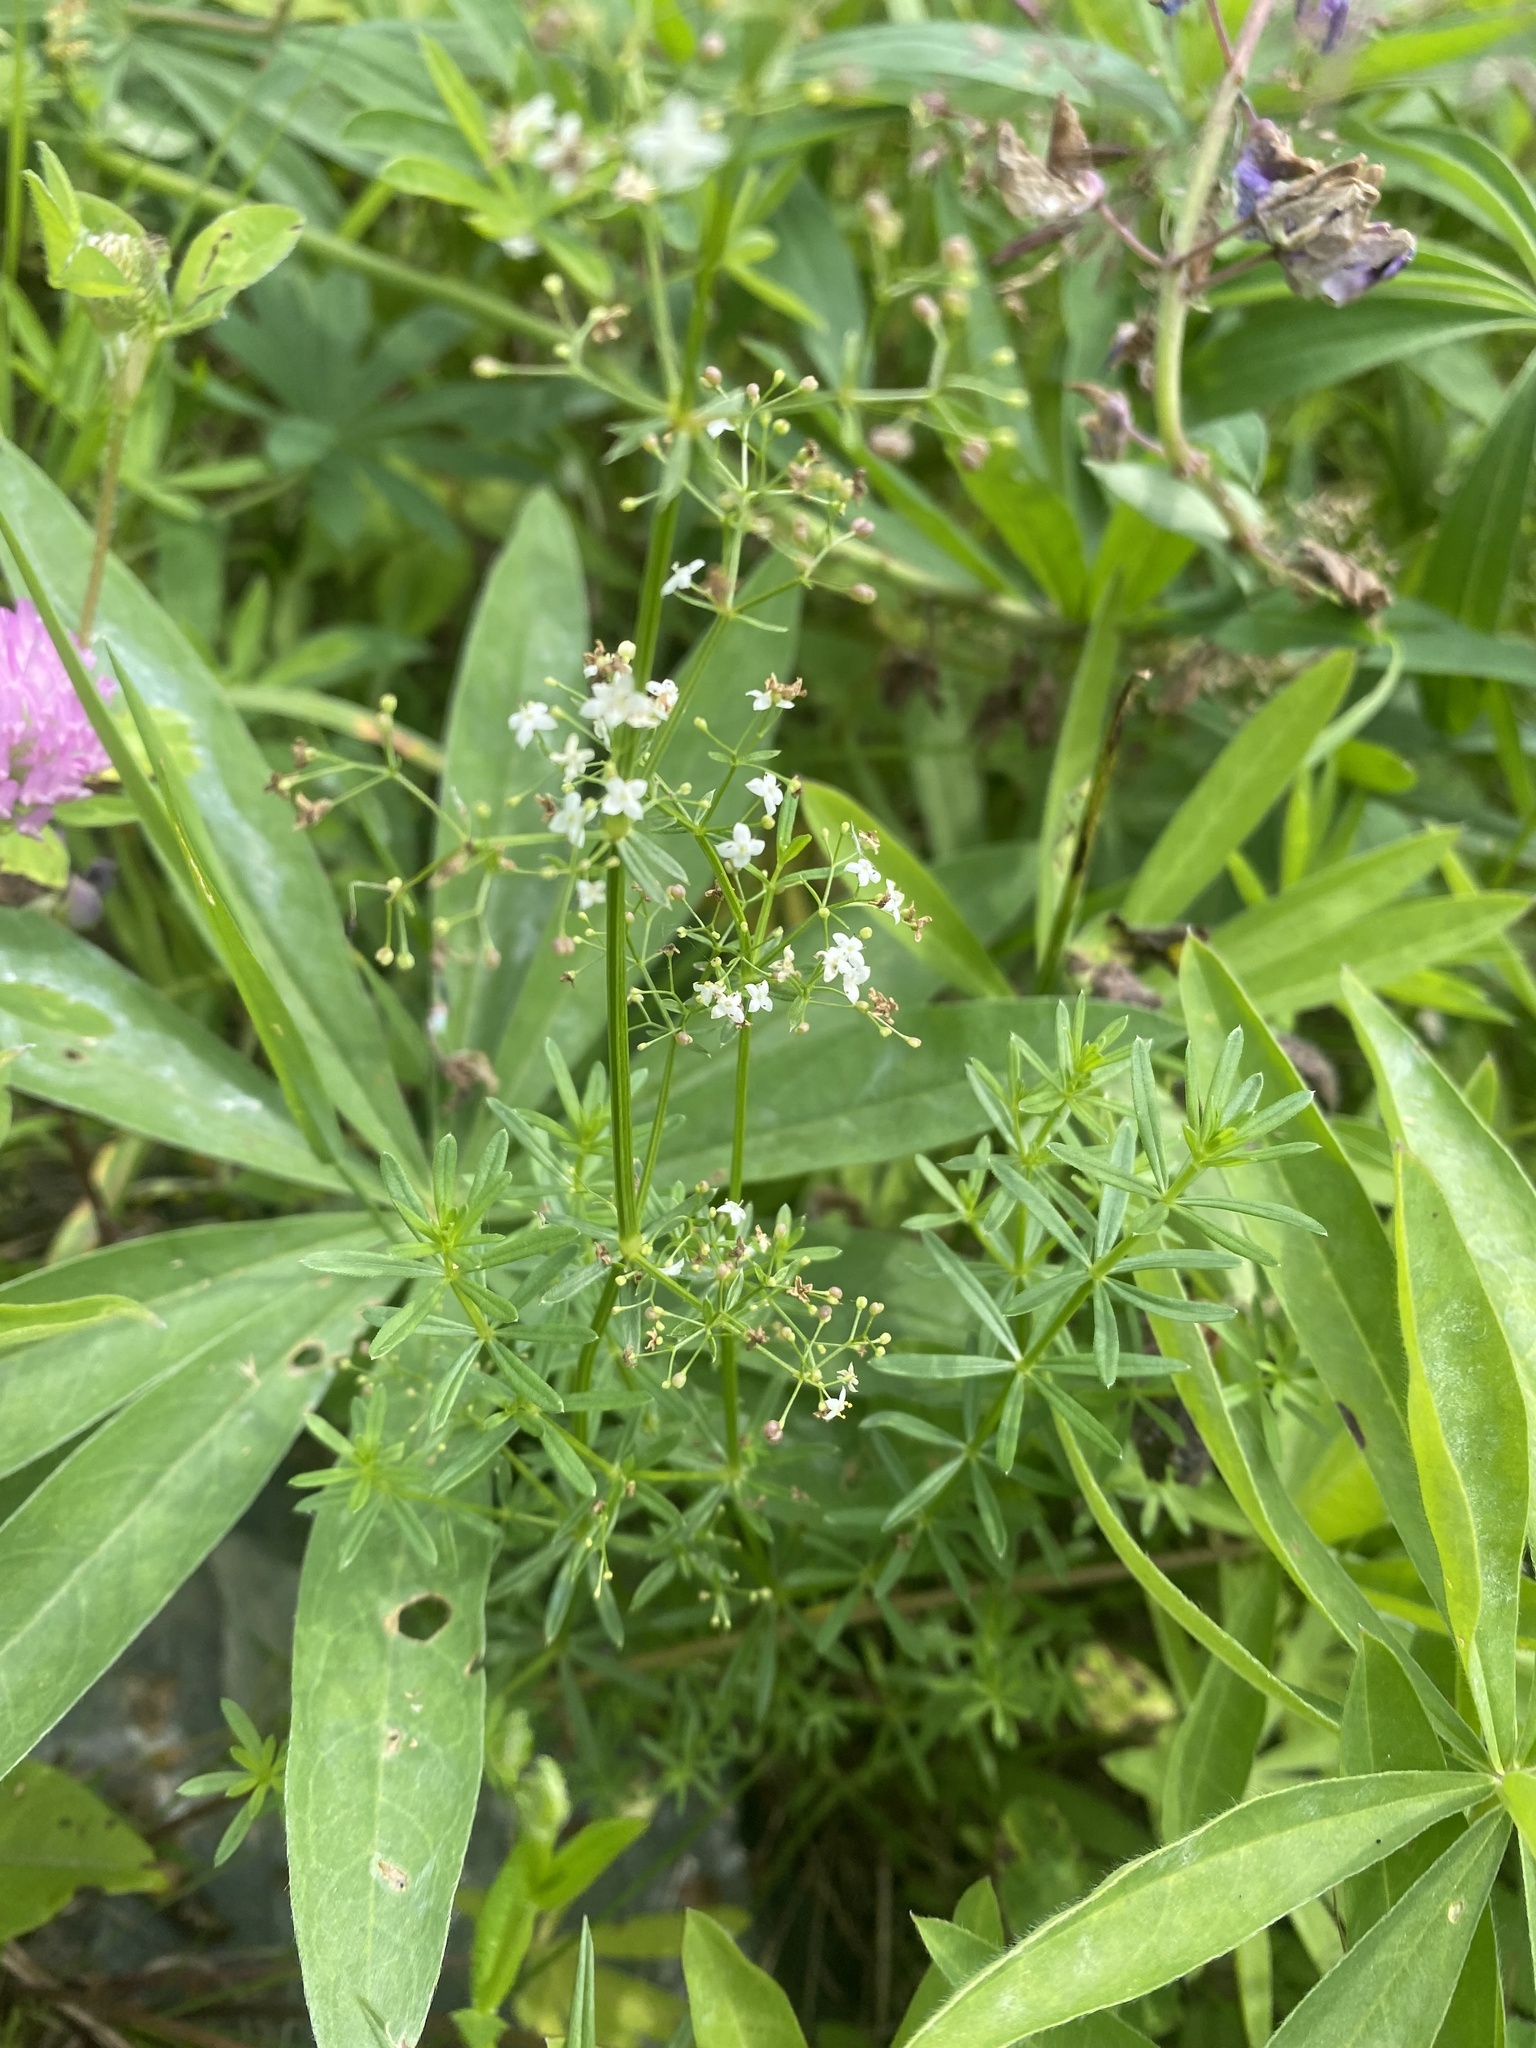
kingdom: Plantae
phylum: Tracheophyta
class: Magnoliopsida
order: Gentianales
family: Rubiaceae
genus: Galium
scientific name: Galium mollugo
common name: Hedge bedstraw
